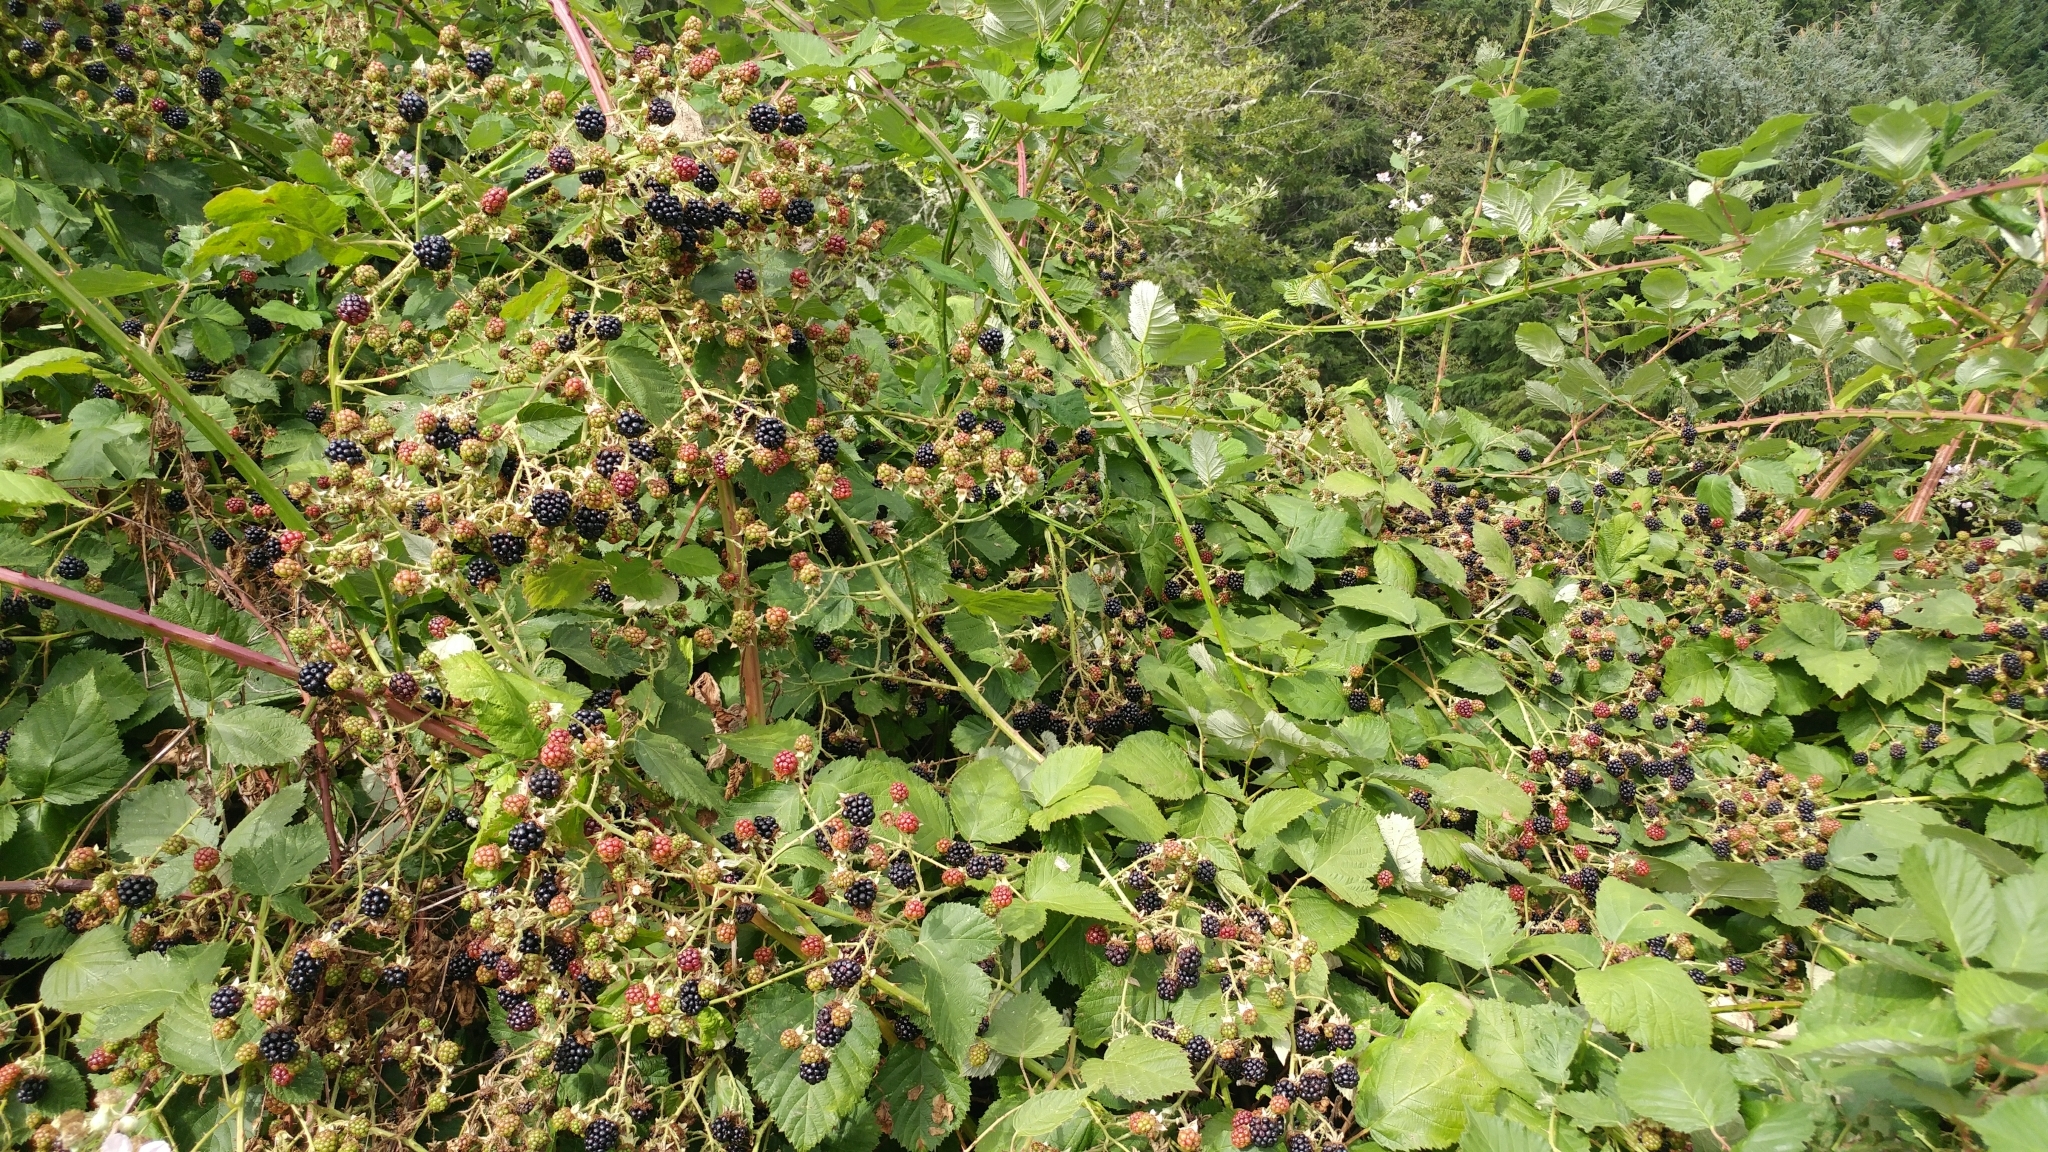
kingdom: Plantae
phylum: Tracheophyta
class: Magnoliopsida
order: Rosales
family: Rosaceae
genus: Rubus
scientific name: Rubus bifrons
